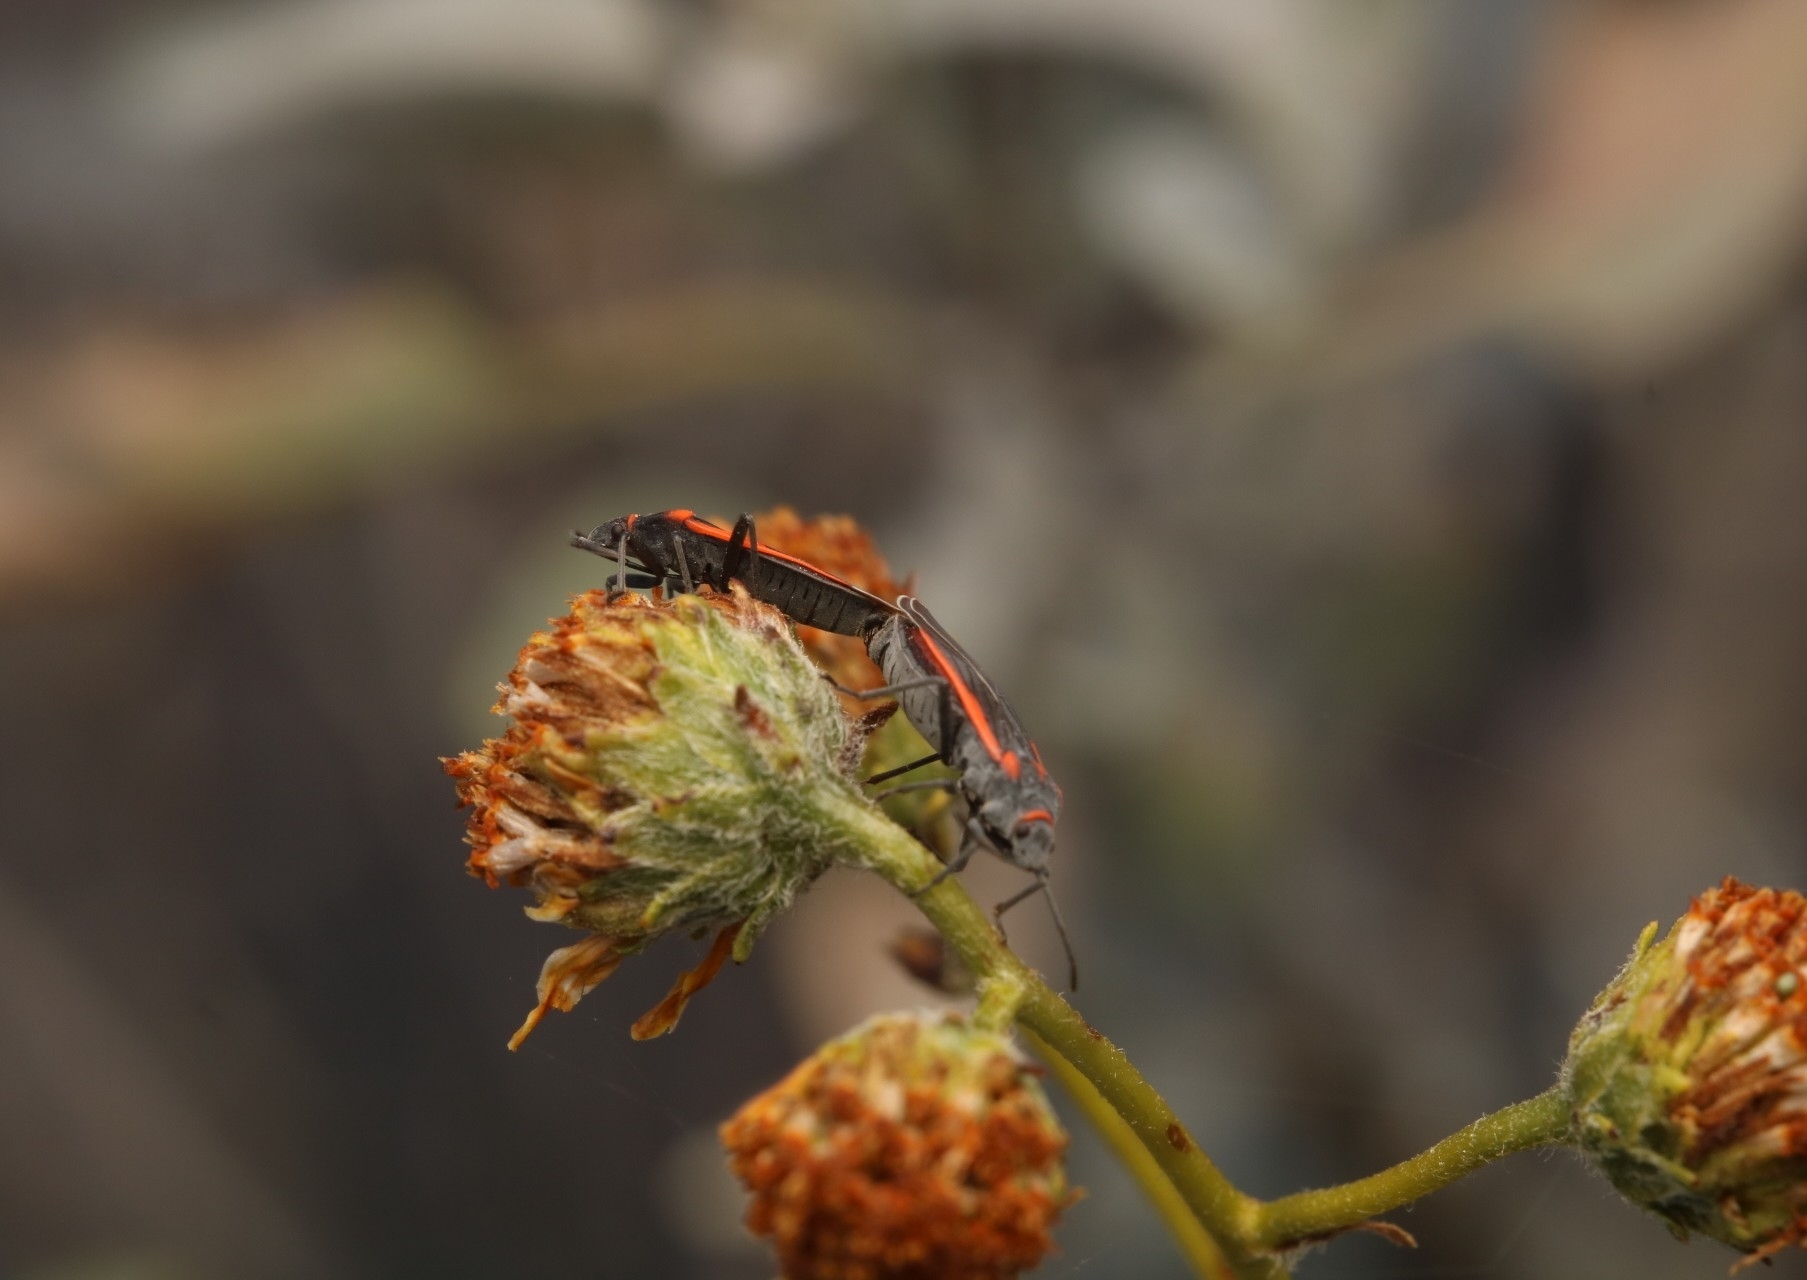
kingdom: Animalia
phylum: Arthropoda
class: Insecta
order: Hemiptera
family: Lygaeidae
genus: Melacoryphus
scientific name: Melacoryphus lateralis
